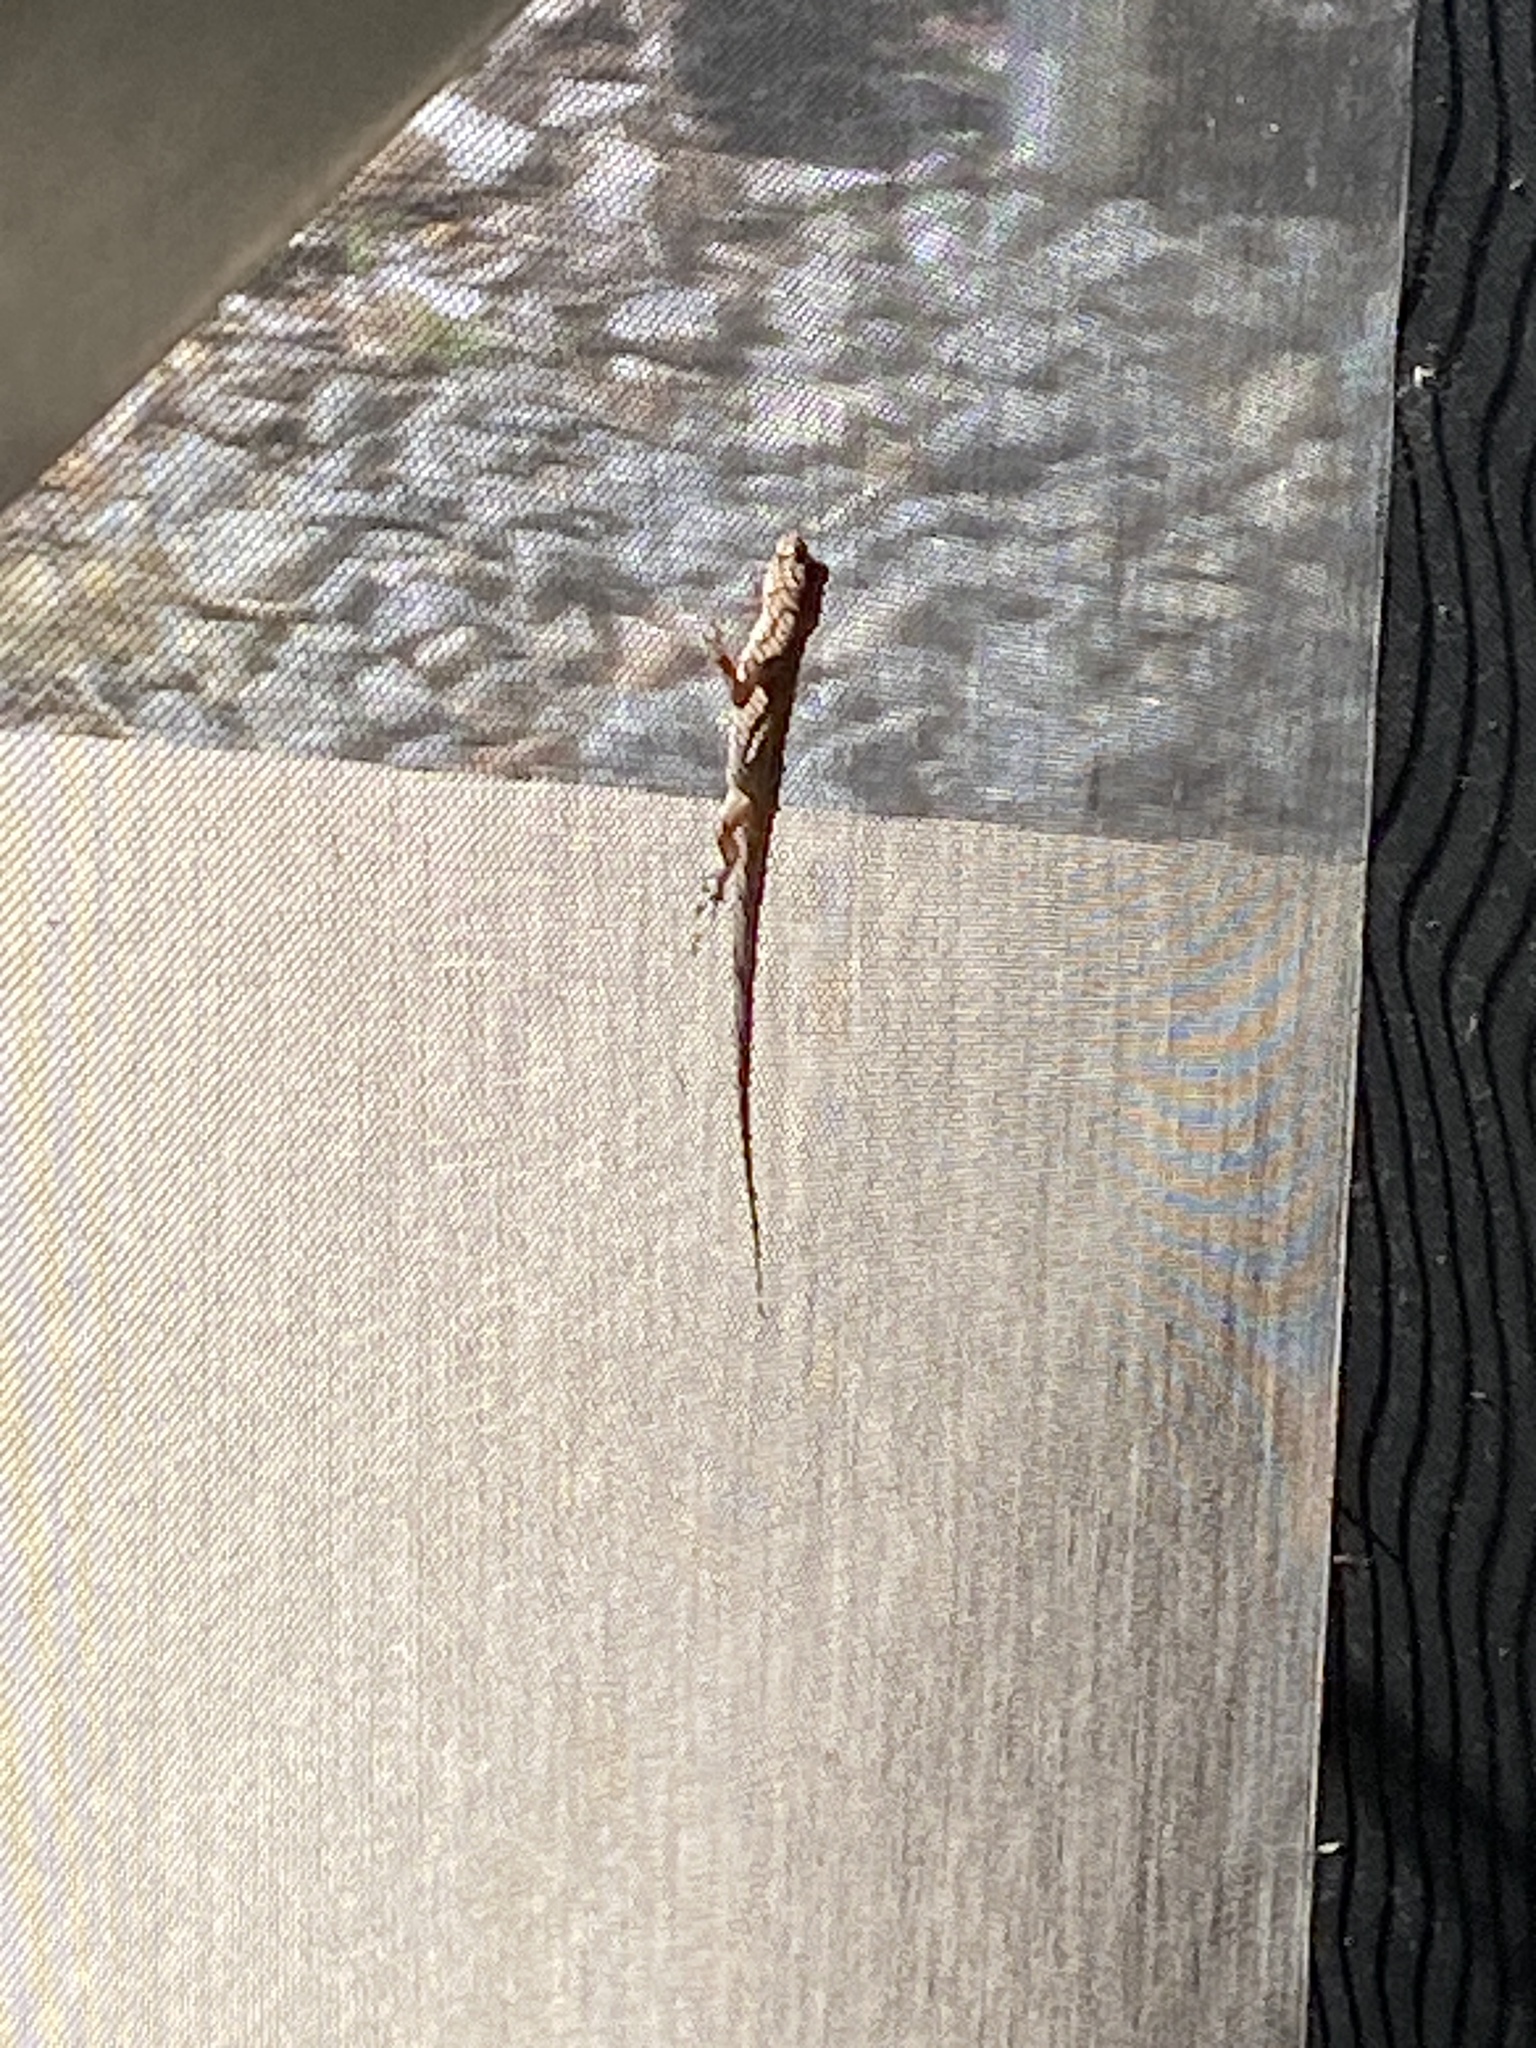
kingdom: Animalia
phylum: Chordata
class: Squamata
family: Dactyloidae
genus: Anolis
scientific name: Anolis sagrei
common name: Brown anole
